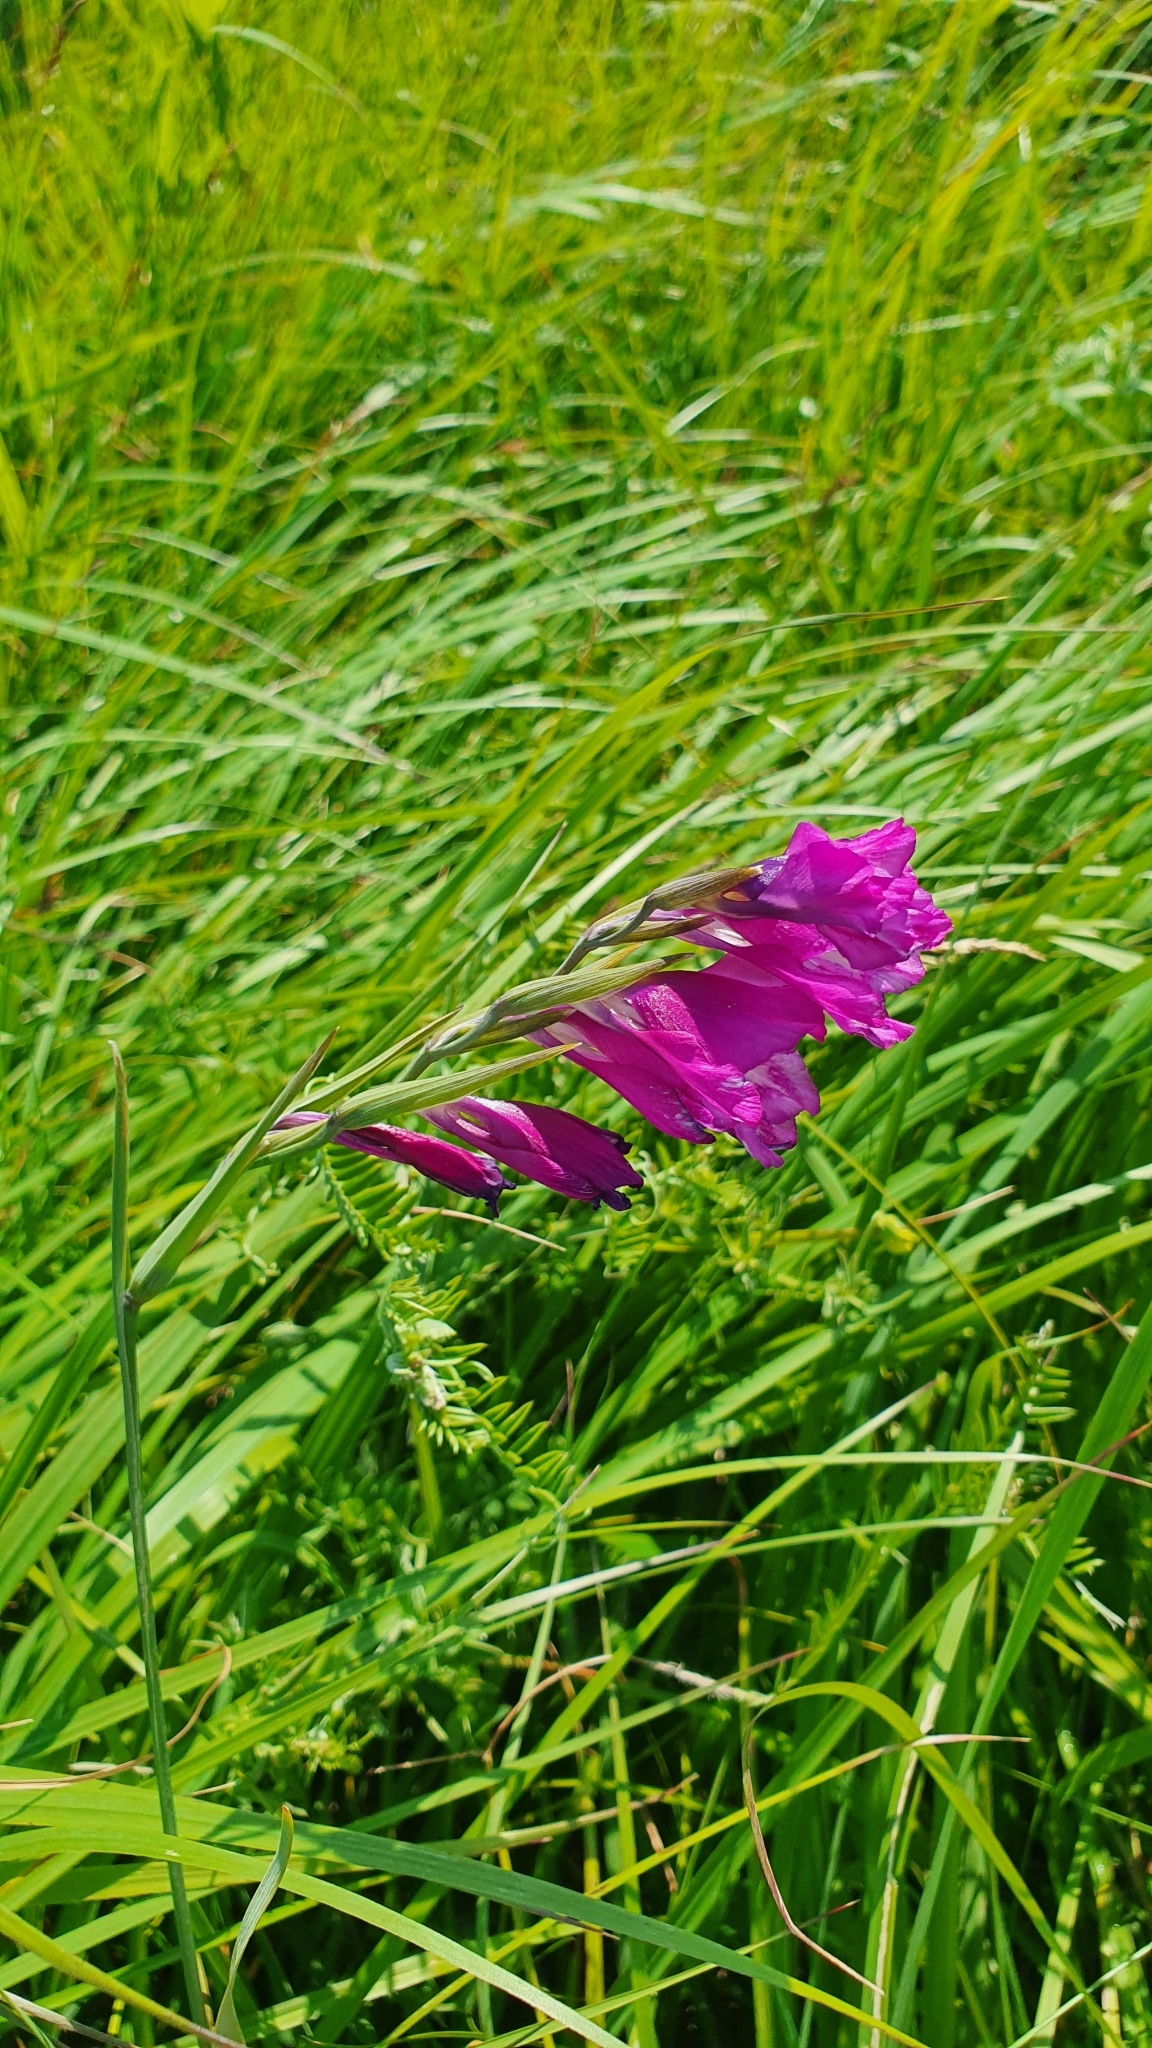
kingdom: Plantae
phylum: Tracheophyta
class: Liliopsida
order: Asparagales
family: Iridaceae
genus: Gladiolus
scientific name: Gladiolus tenuis
